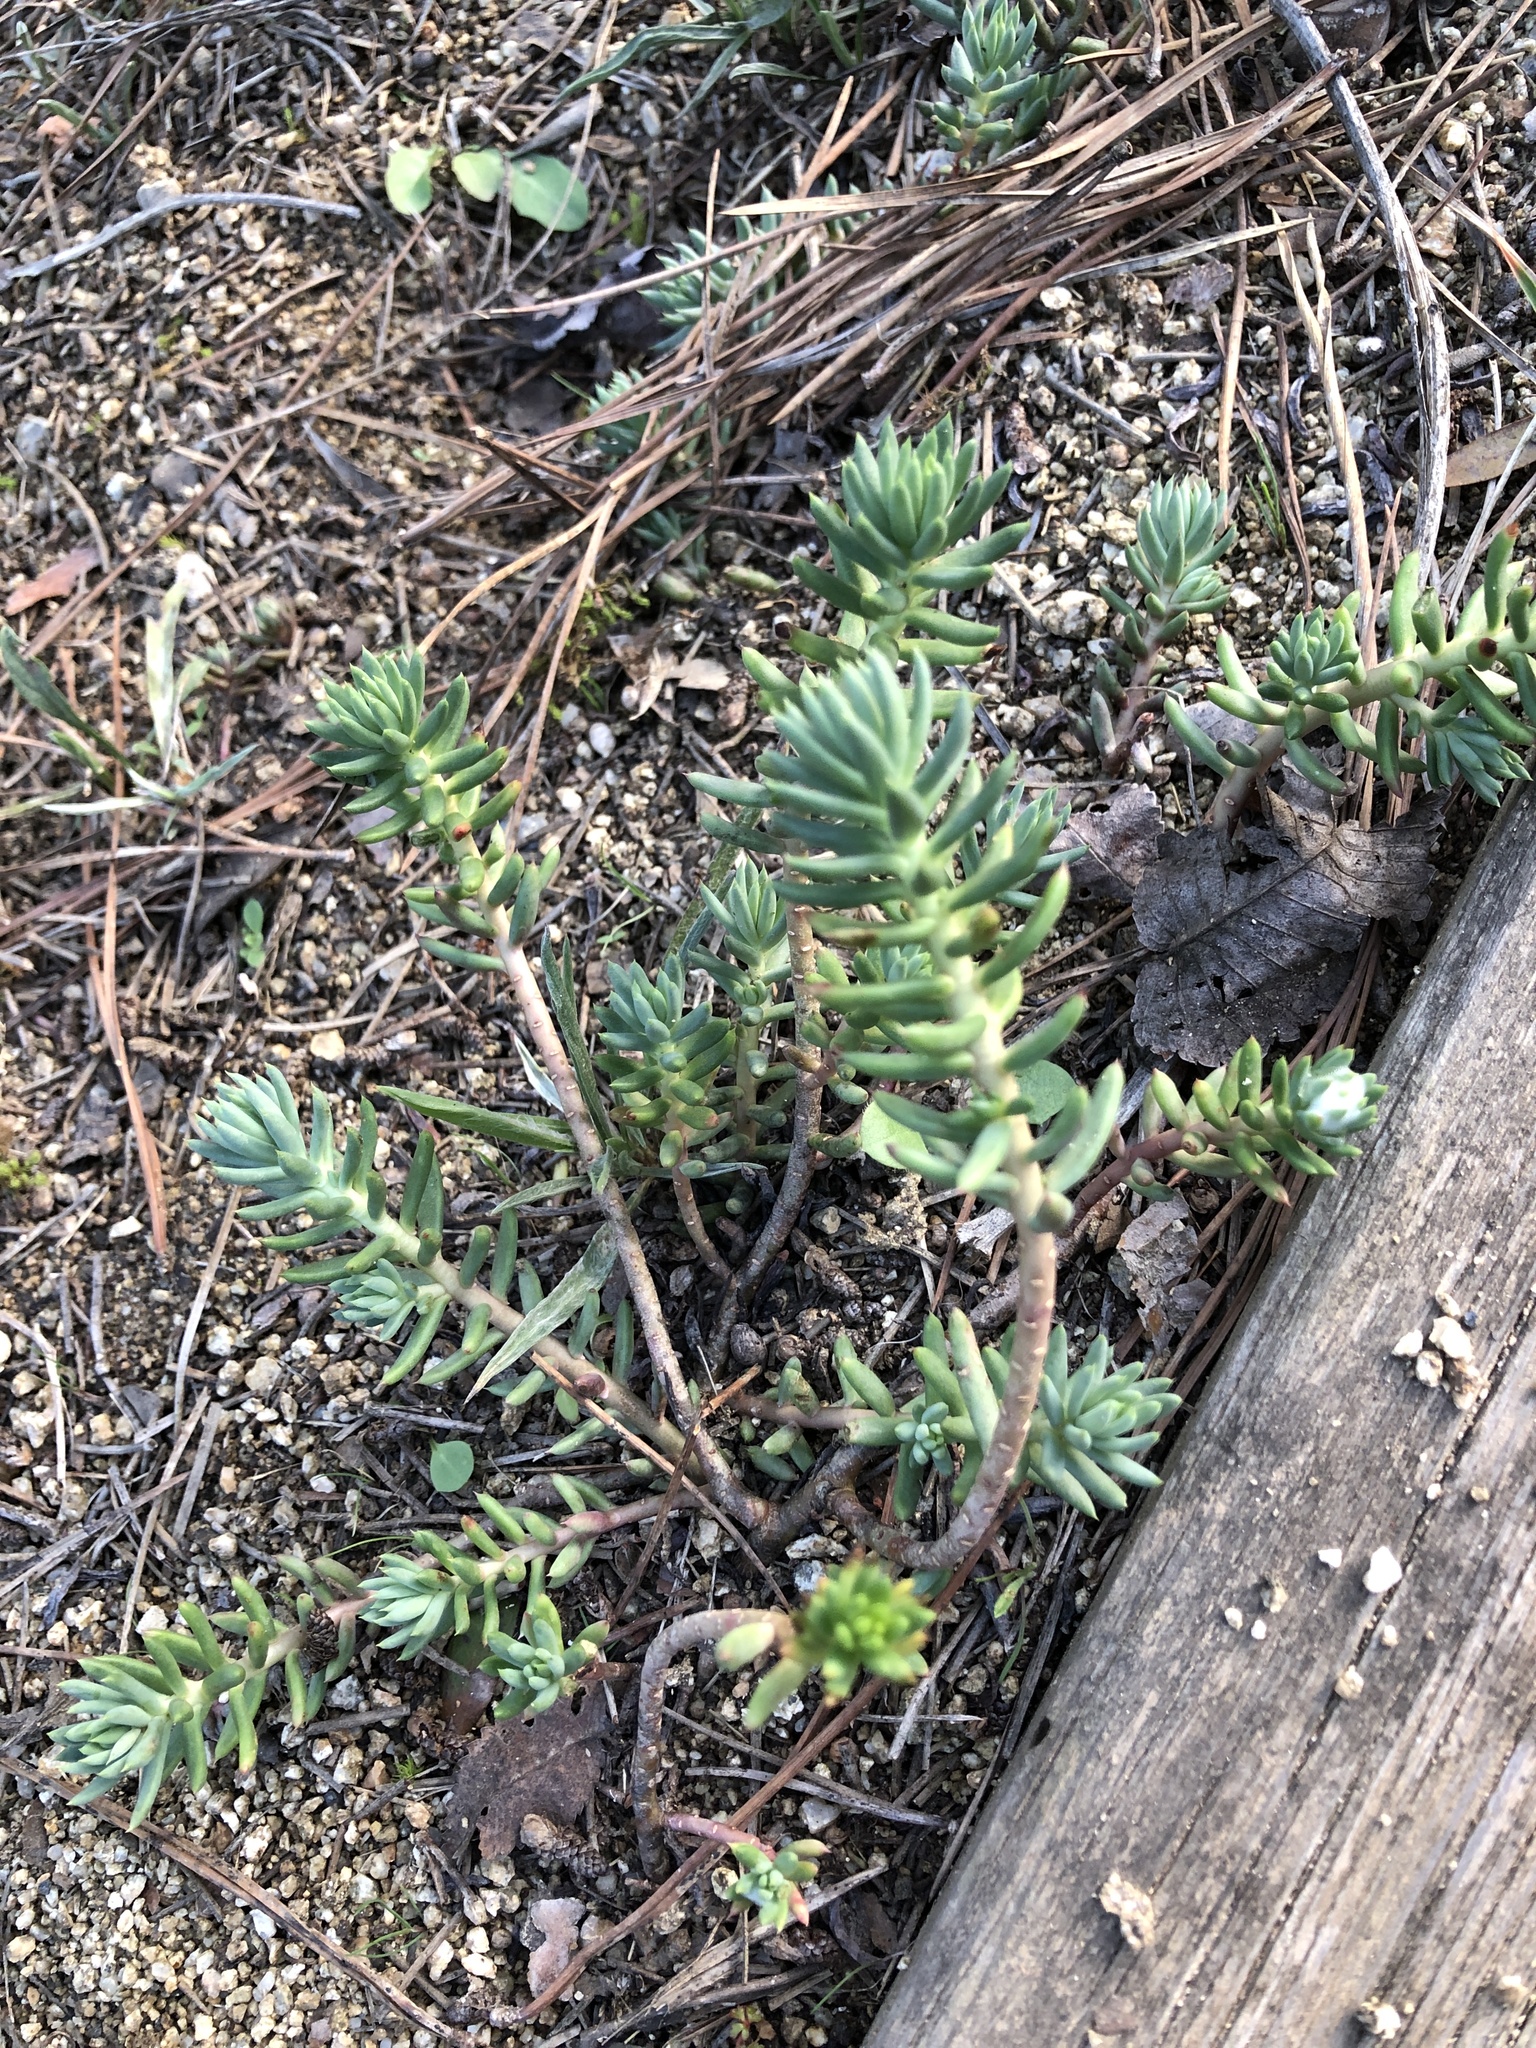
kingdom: Plantae
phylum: Tracheophyta
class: Magnoliopsida
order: Saxifragales
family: Crassulaceae
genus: Petrosedum
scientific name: Petrosedum sediforme
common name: Pale stonecrop
